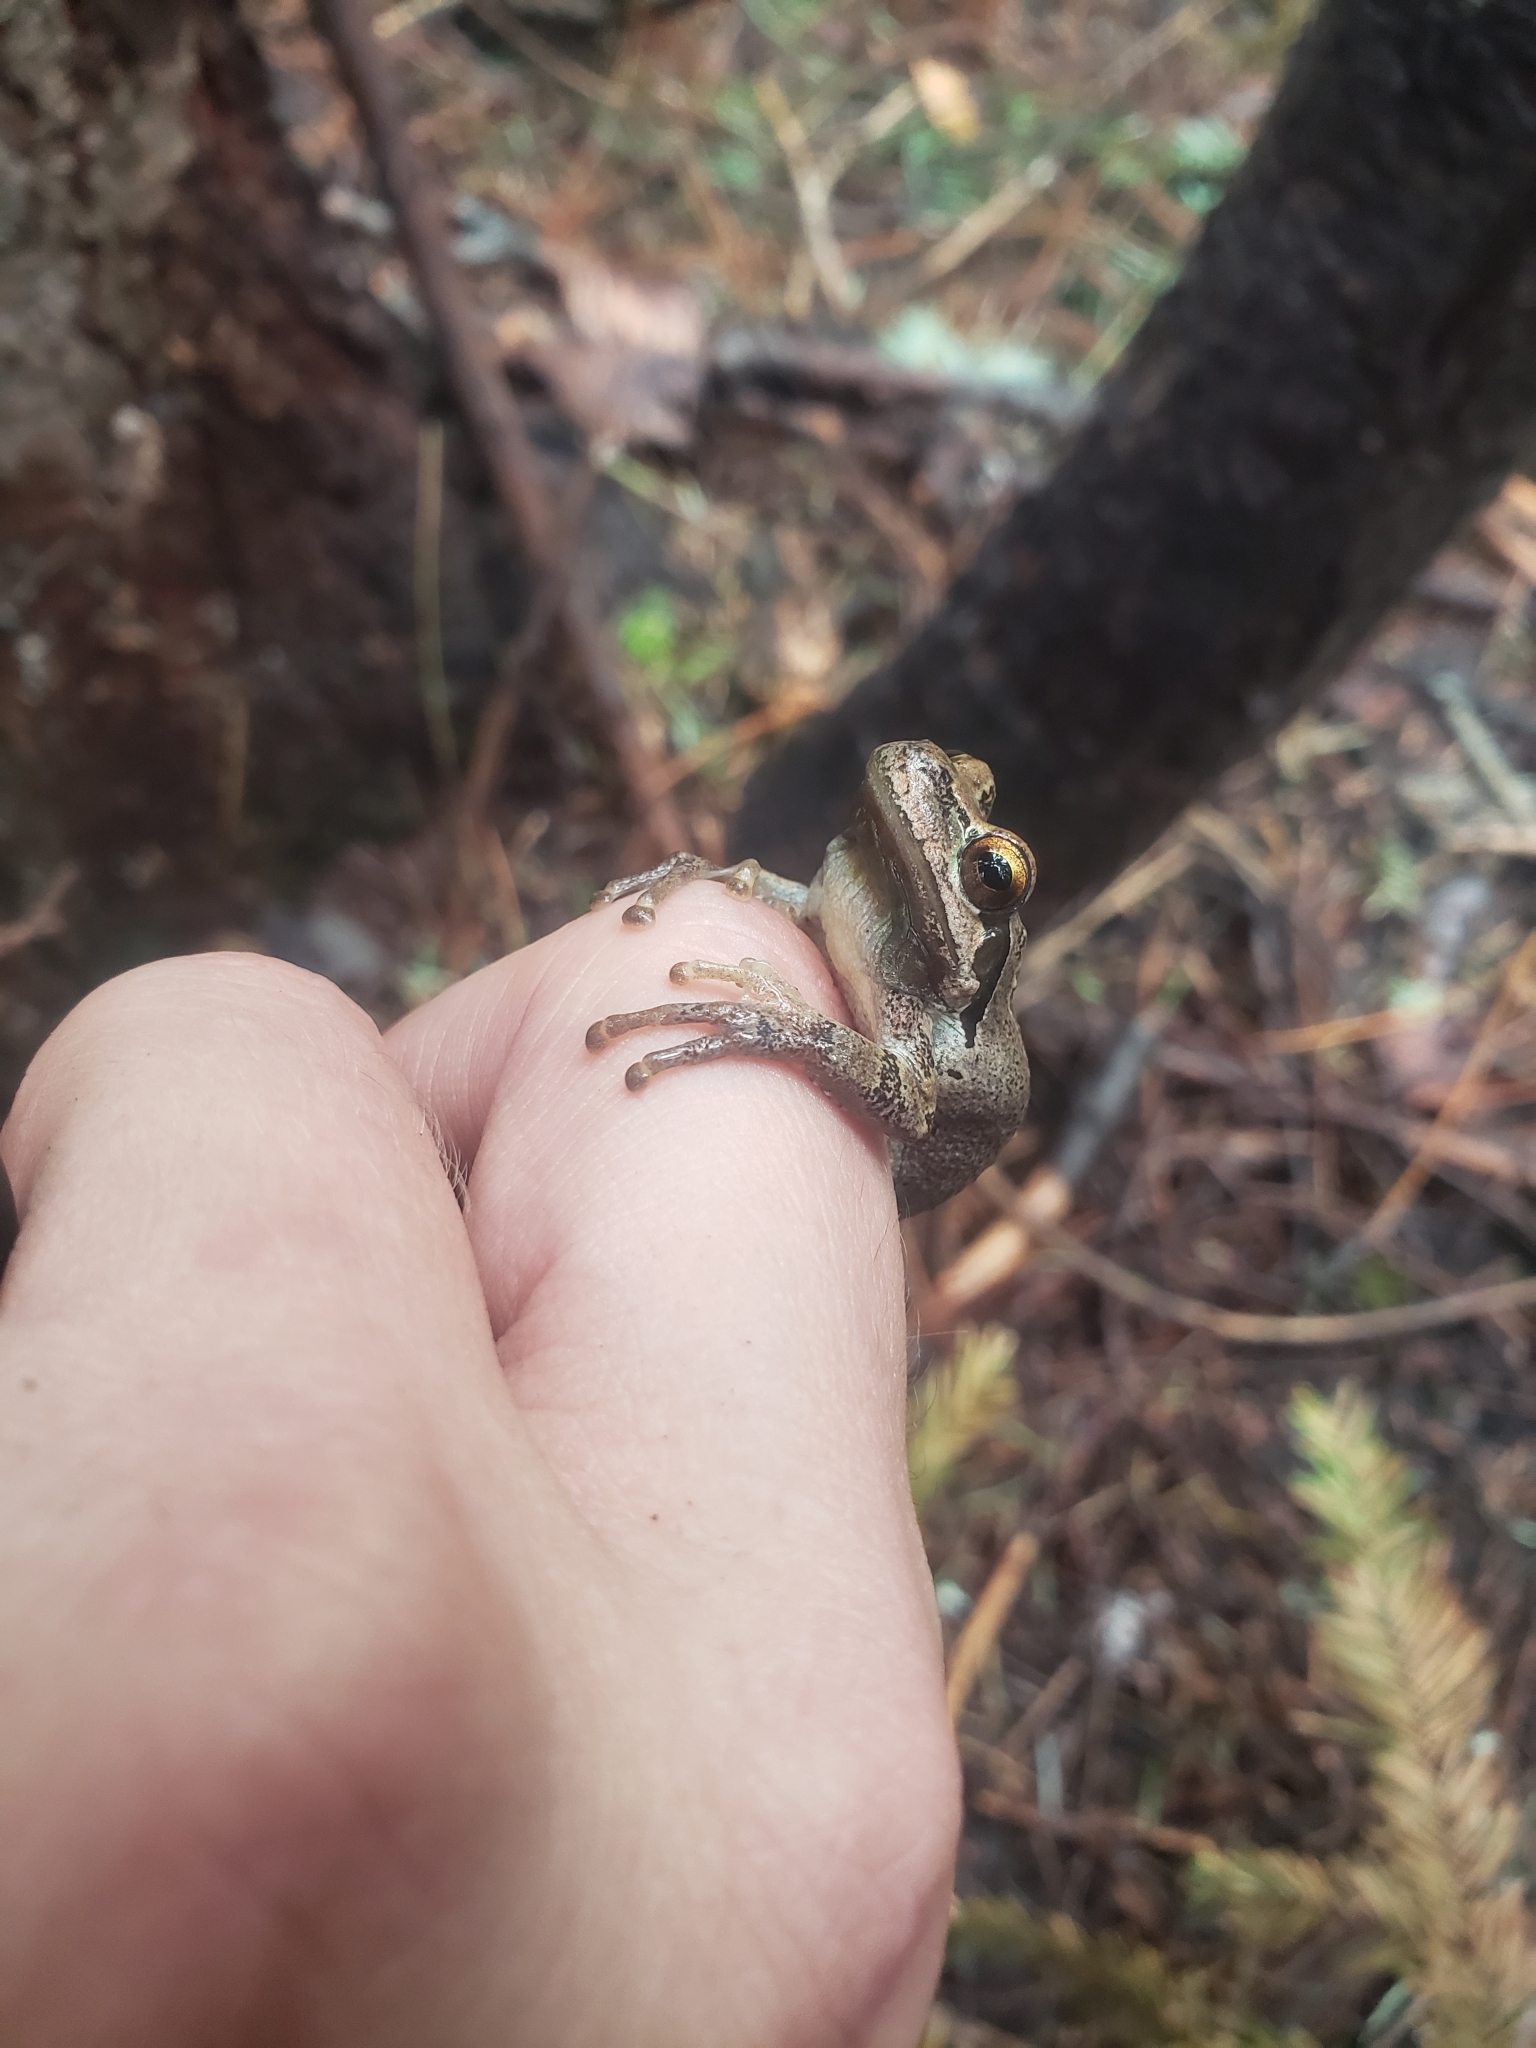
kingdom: Animalia
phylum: Chordata
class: Amphibia
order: Anura
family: Hylidae
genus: Pseudacris
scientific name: Pseudacris regilla
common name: Pacific chorus frog
